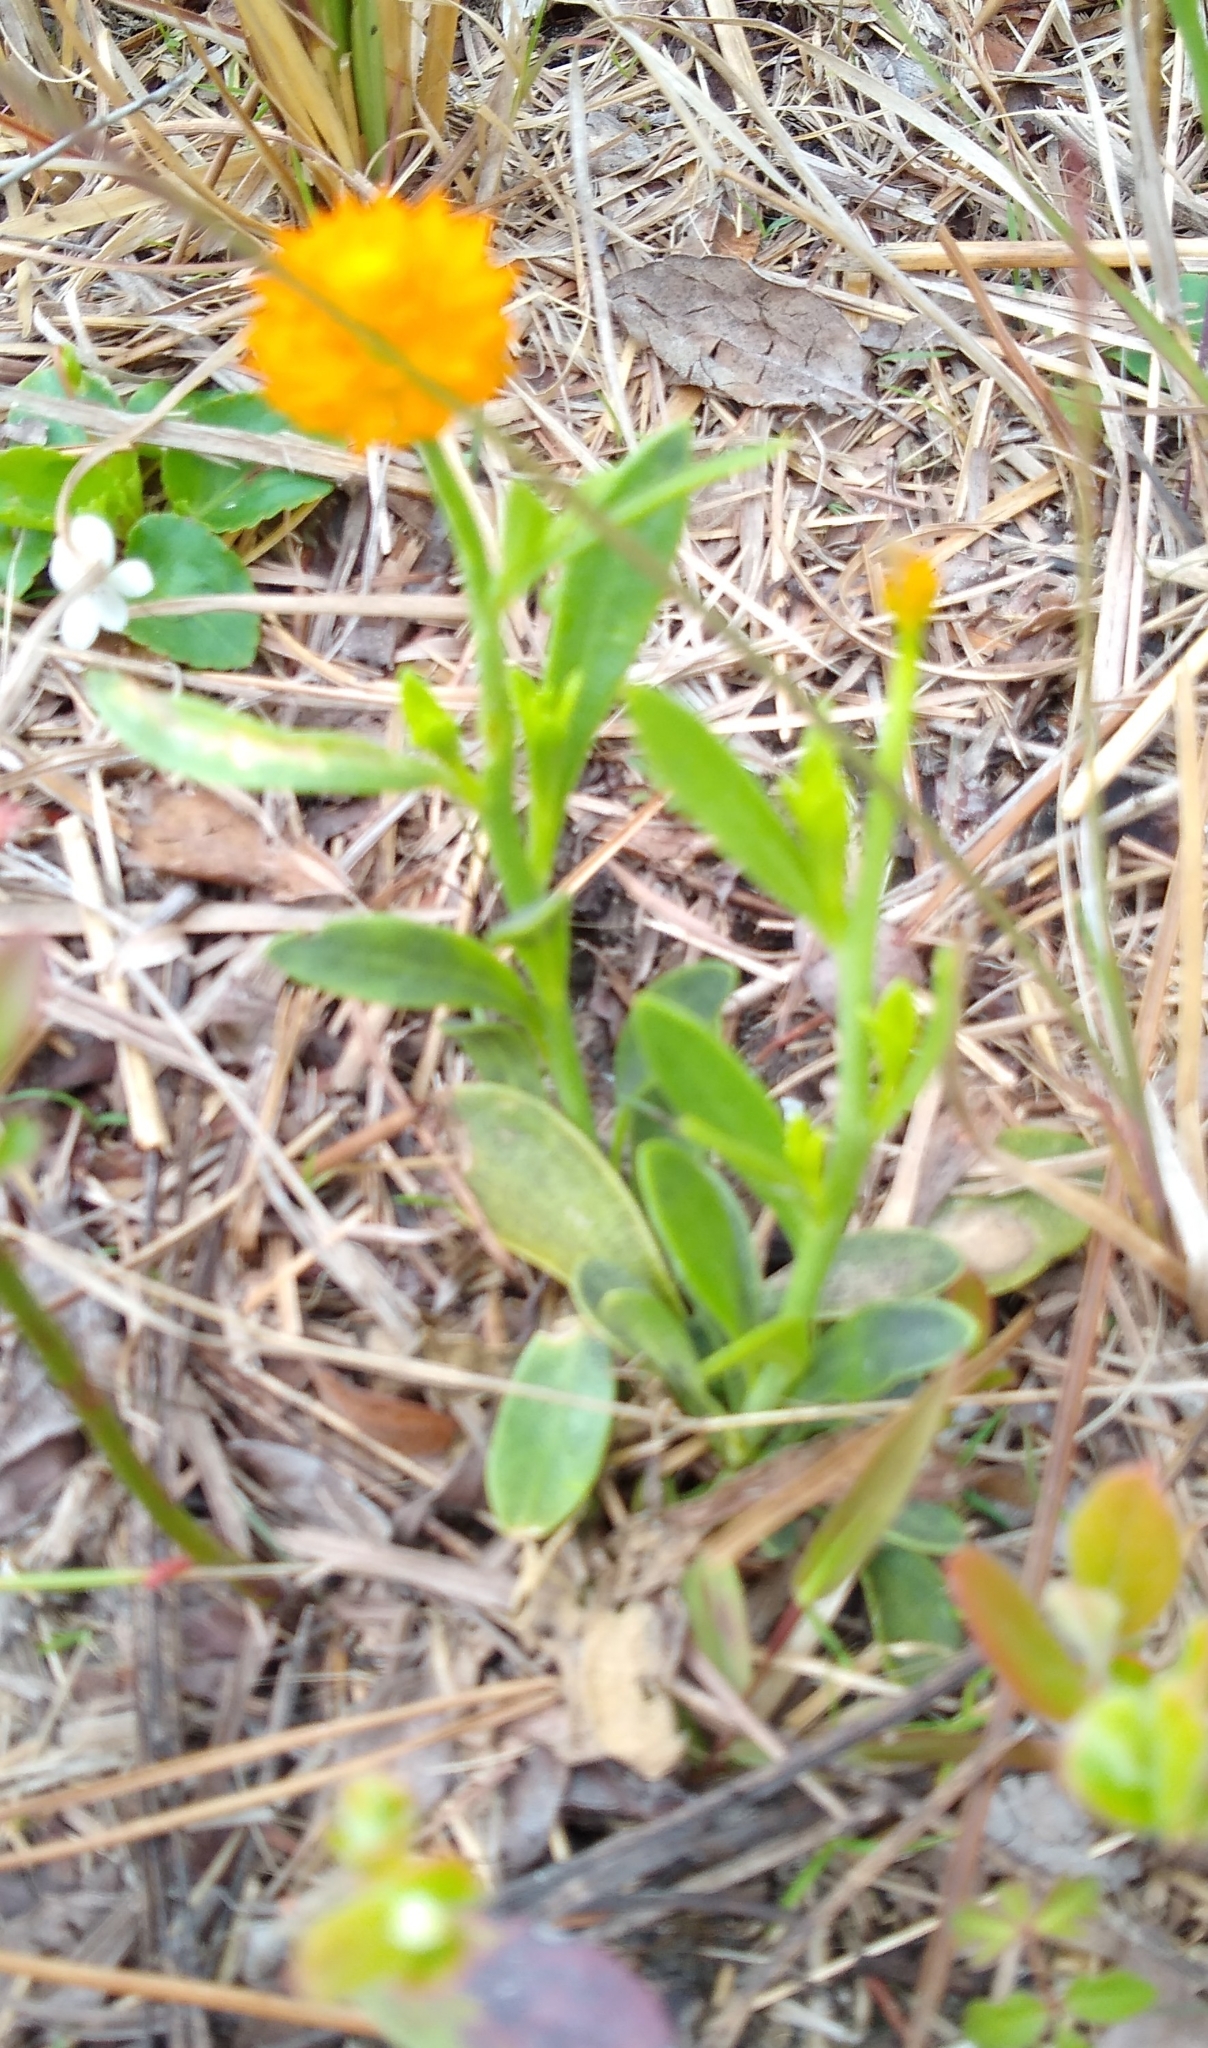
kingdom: Plantae
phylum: Tracheophyta
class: Magnoliopsida
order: Fabales
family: Polygalaceae
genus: Polygala
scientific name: Polygala lutea
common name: Orange milkwort
